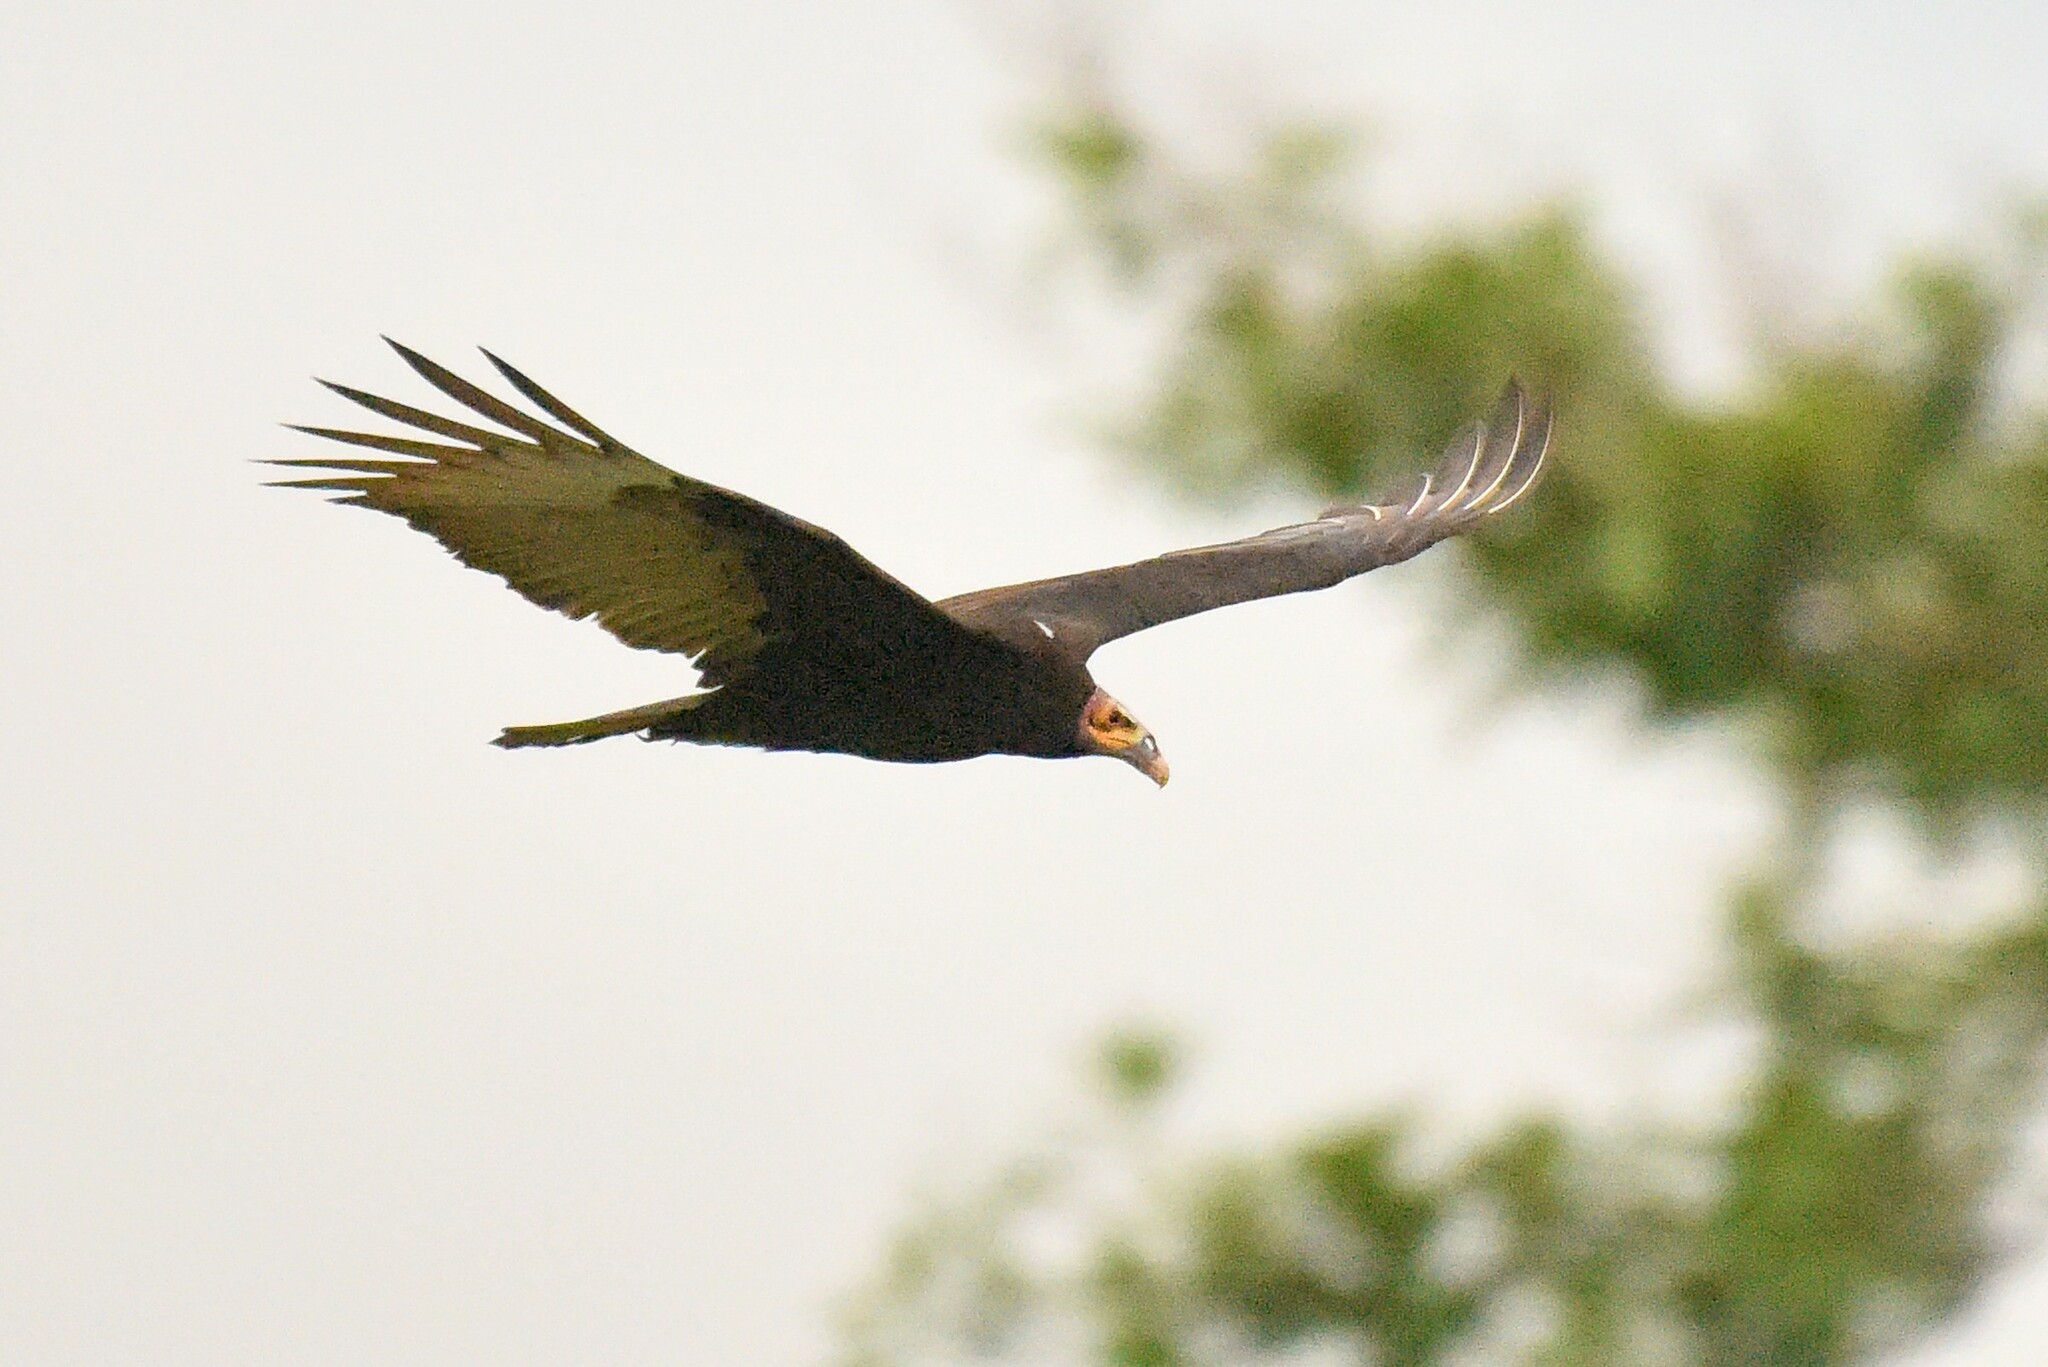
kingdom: Animalia
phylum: Chordata
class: Aves
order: Accipitriformes
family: Cathartidae
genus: Cathartes
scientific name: Cathartes burrovianus
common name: Lesser yellow-headed vulture
